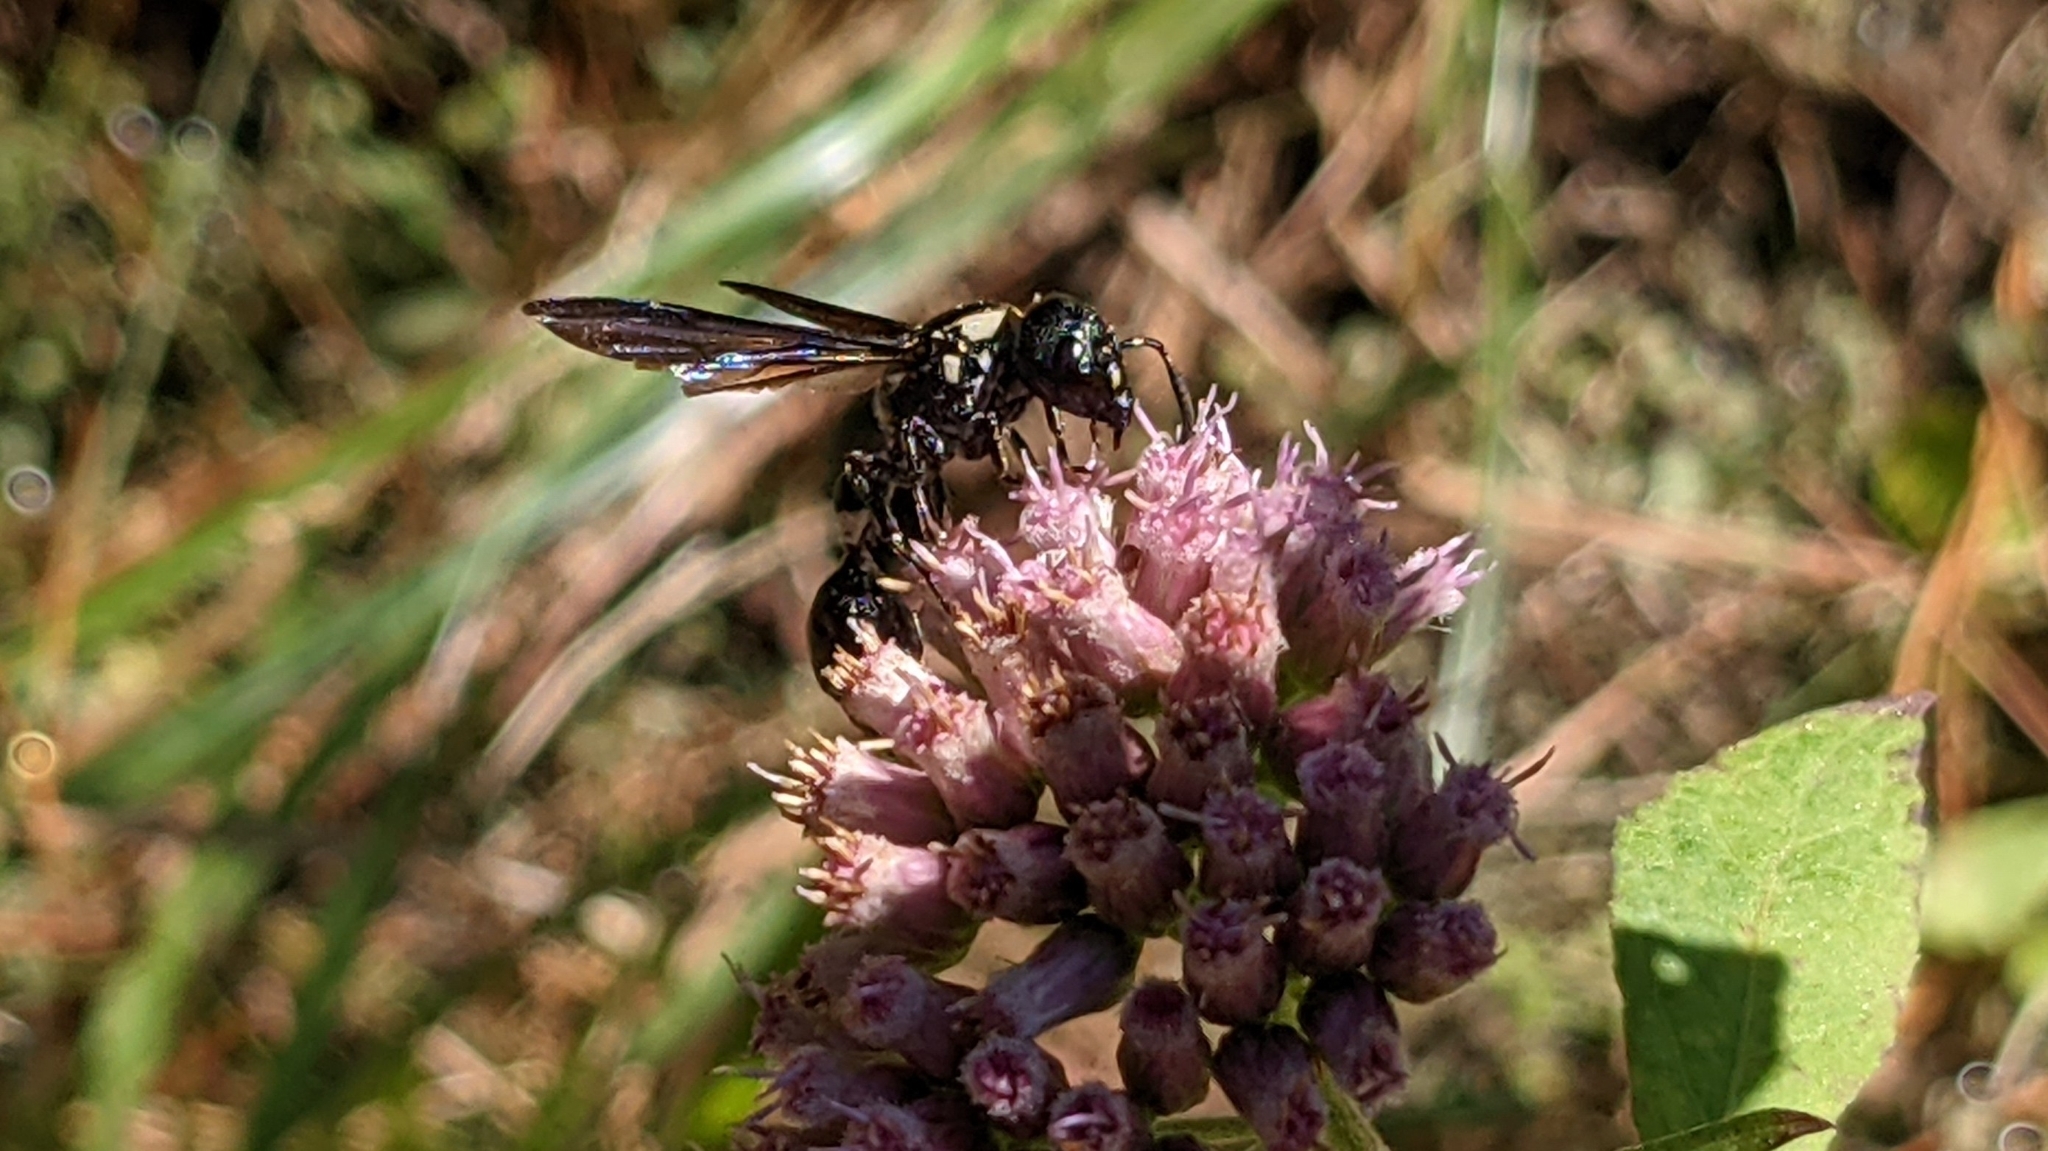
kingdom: Animalia
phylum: Arthropoda
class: Insecta
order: Hymenoptera
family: Eumenidae
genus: Zethus
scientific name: Zethus spinipes
